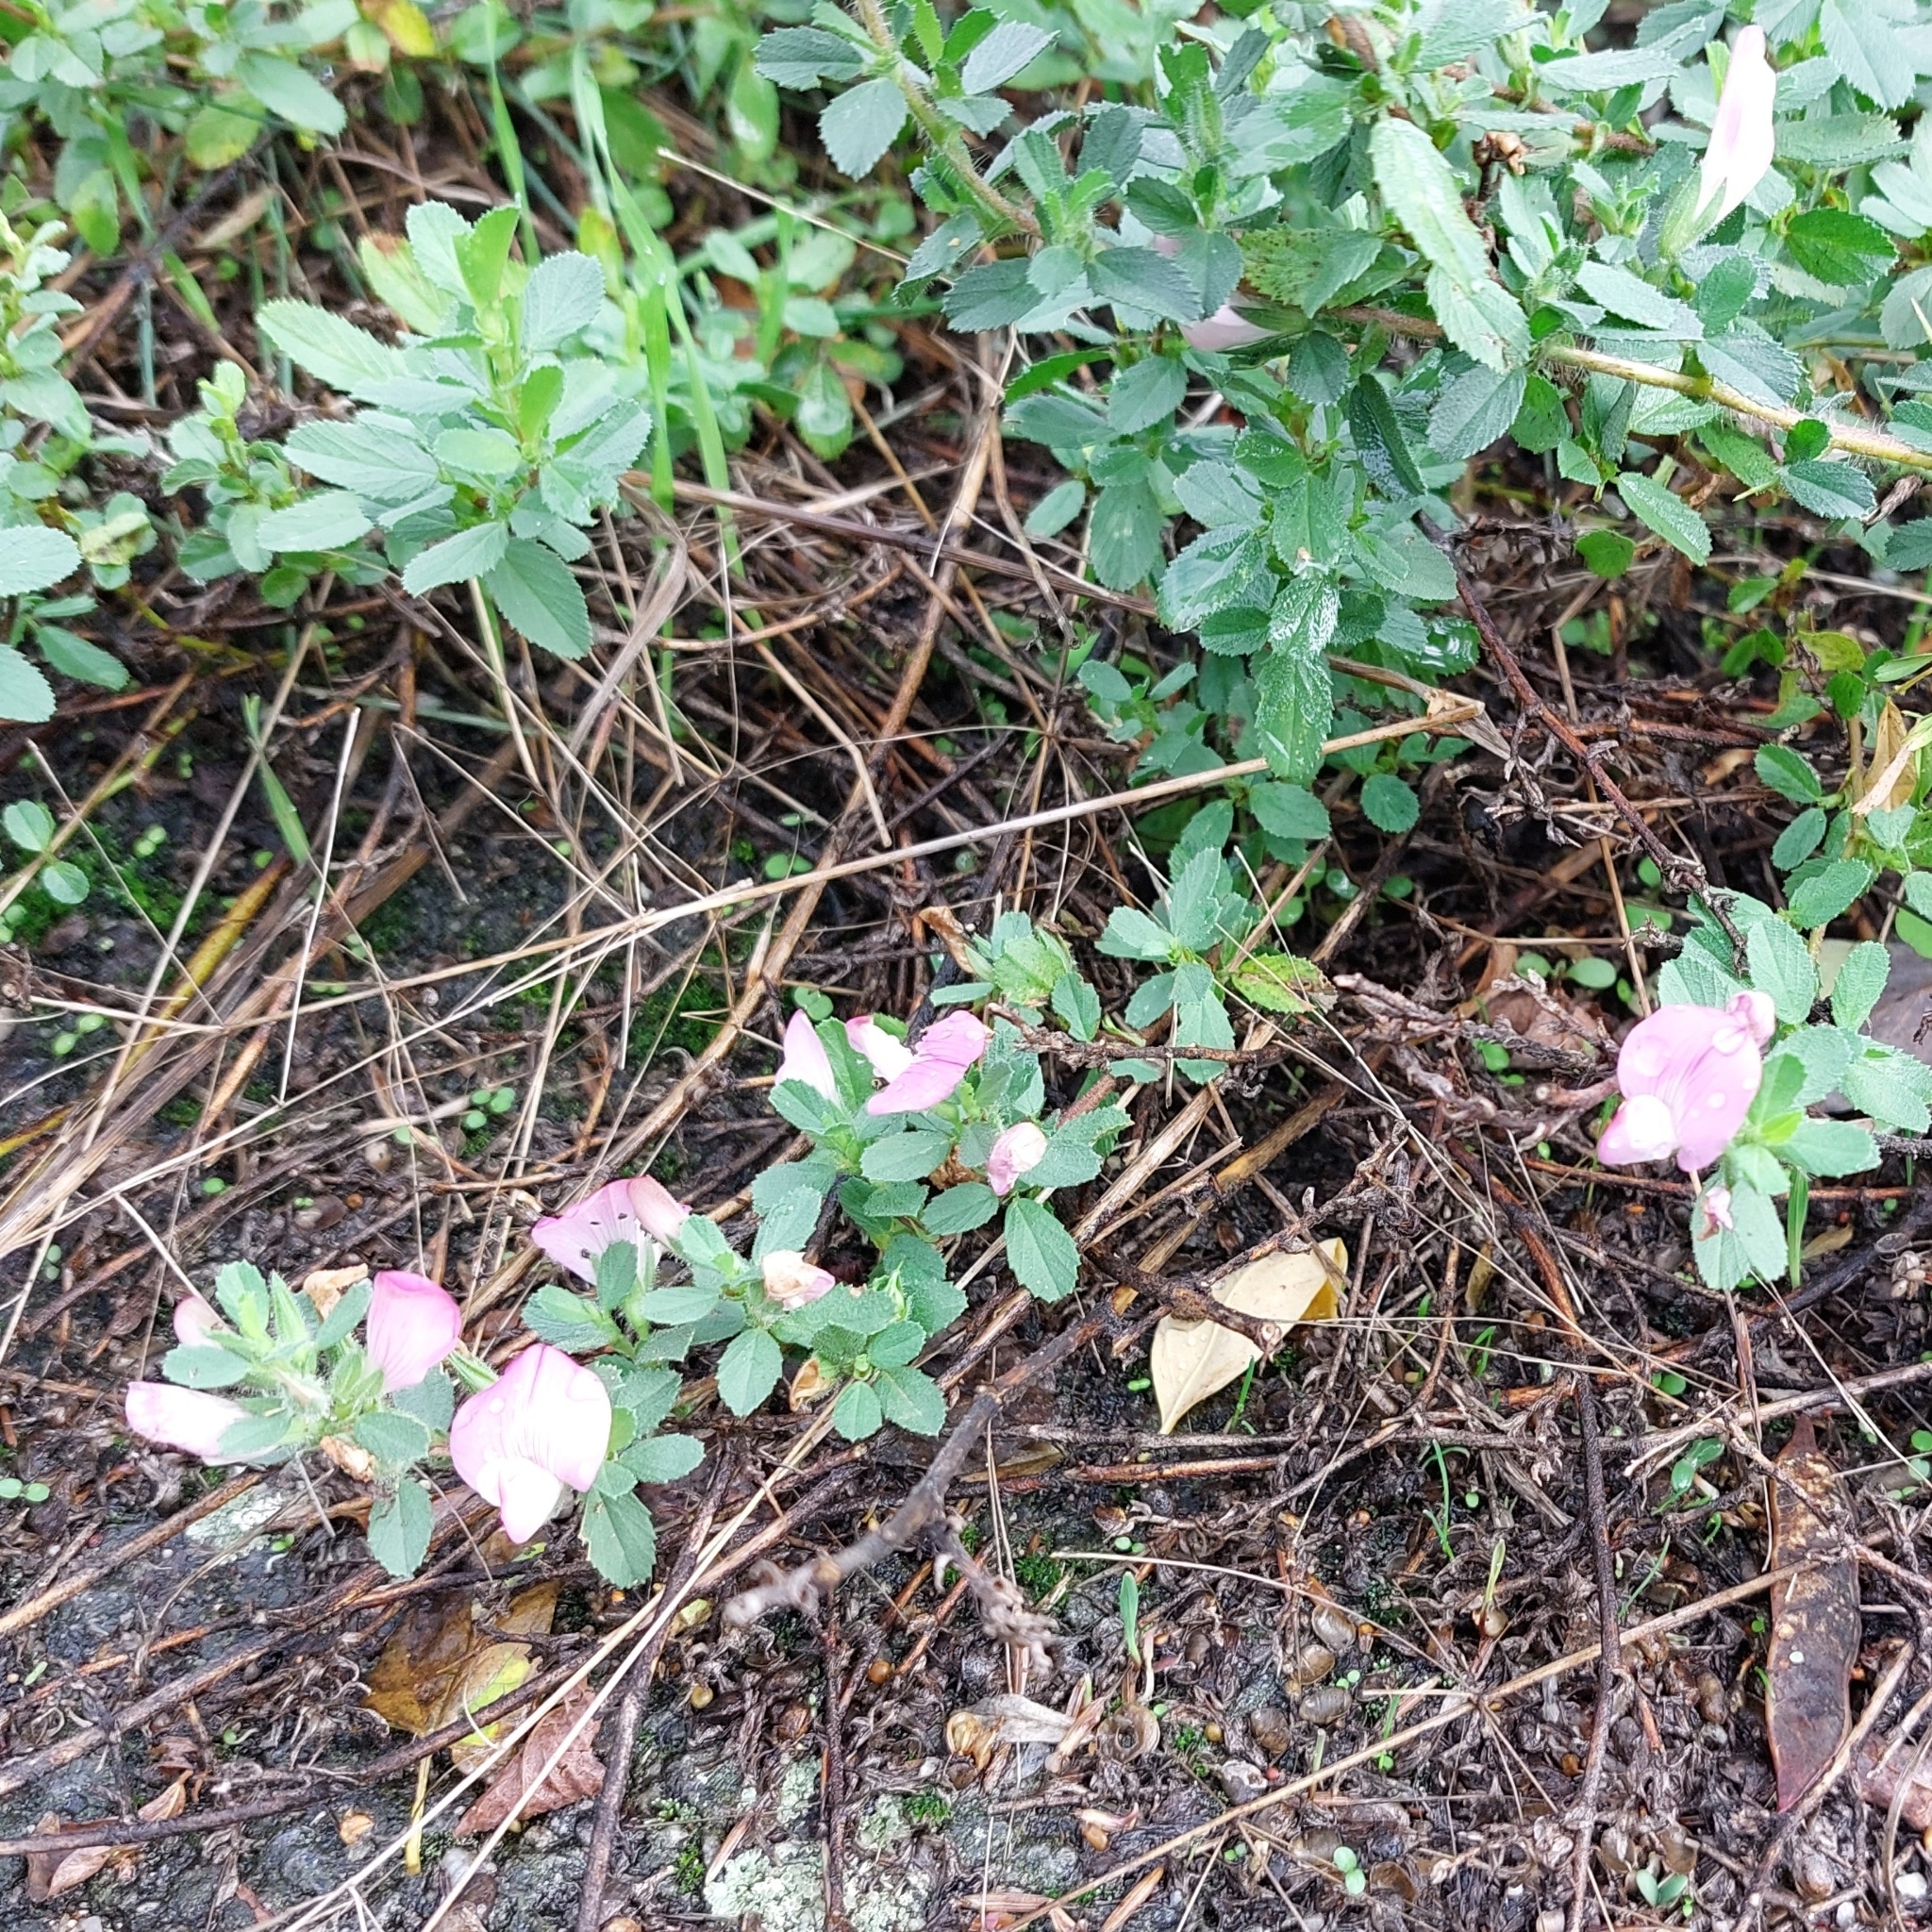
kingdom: Plantae
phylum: Tracheophyta
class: Magnoliopsida
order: Fabales
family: Fabaceae
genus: Ononis
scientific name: Ononis spinosa
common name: Spiny restharrow
